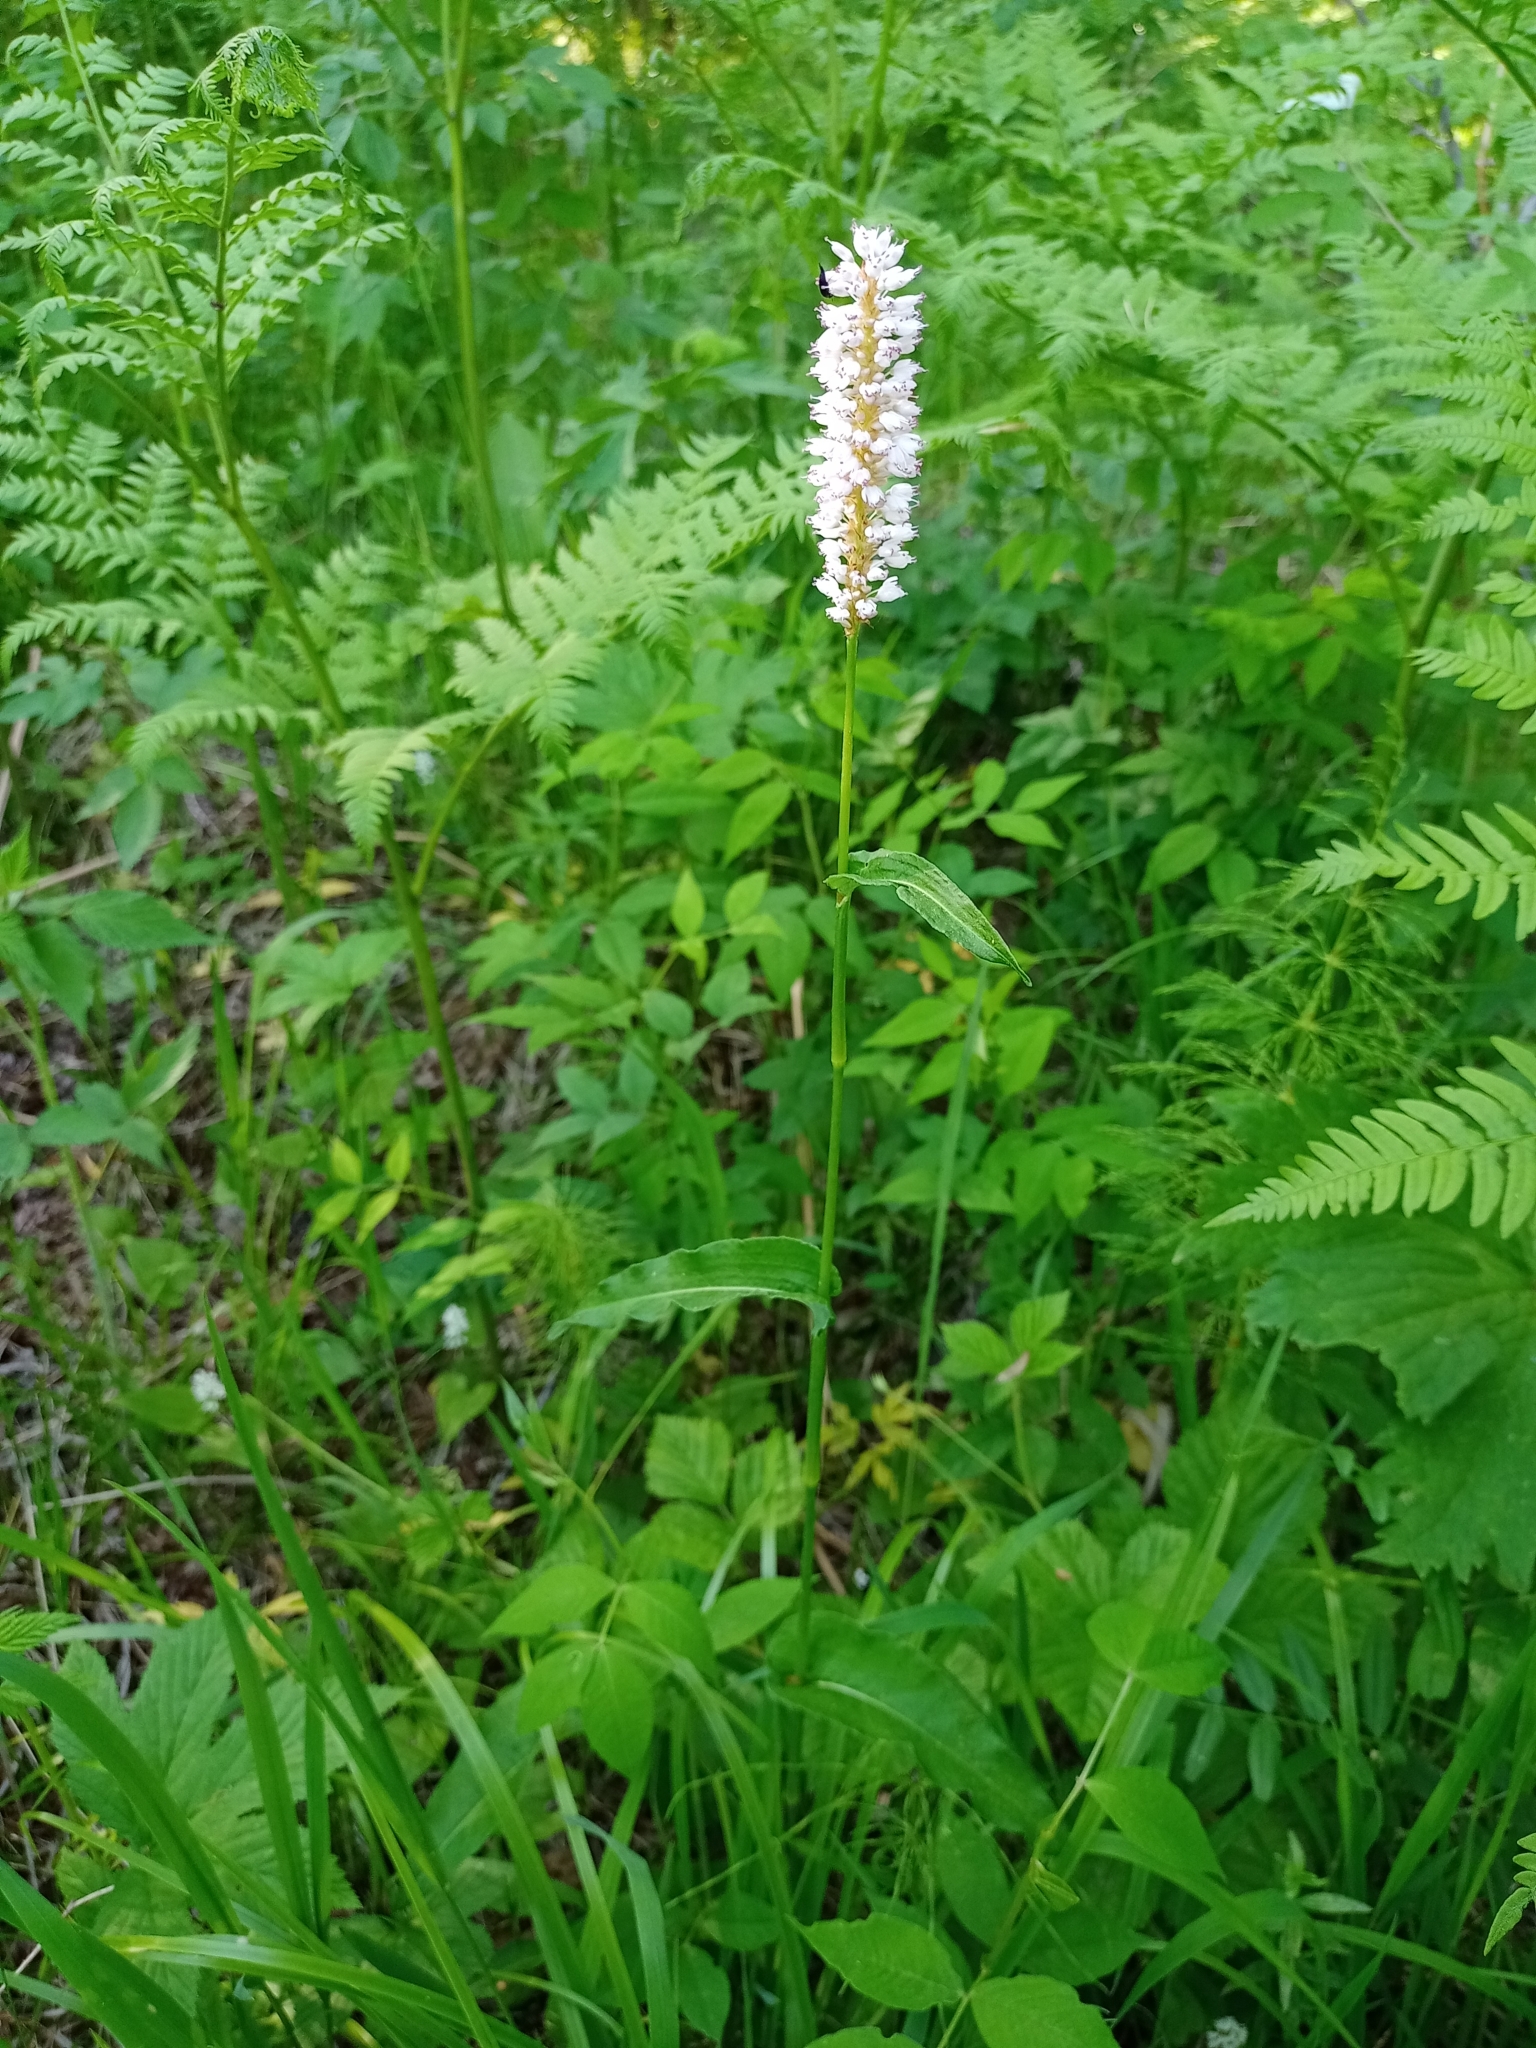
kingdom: Plantae
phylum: Tracheophyta
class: Magnoliopsida
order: Caryophyllales
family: Polygonaceae
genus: Bistorta
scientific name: Bistorta officinalis
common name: Common bistort
